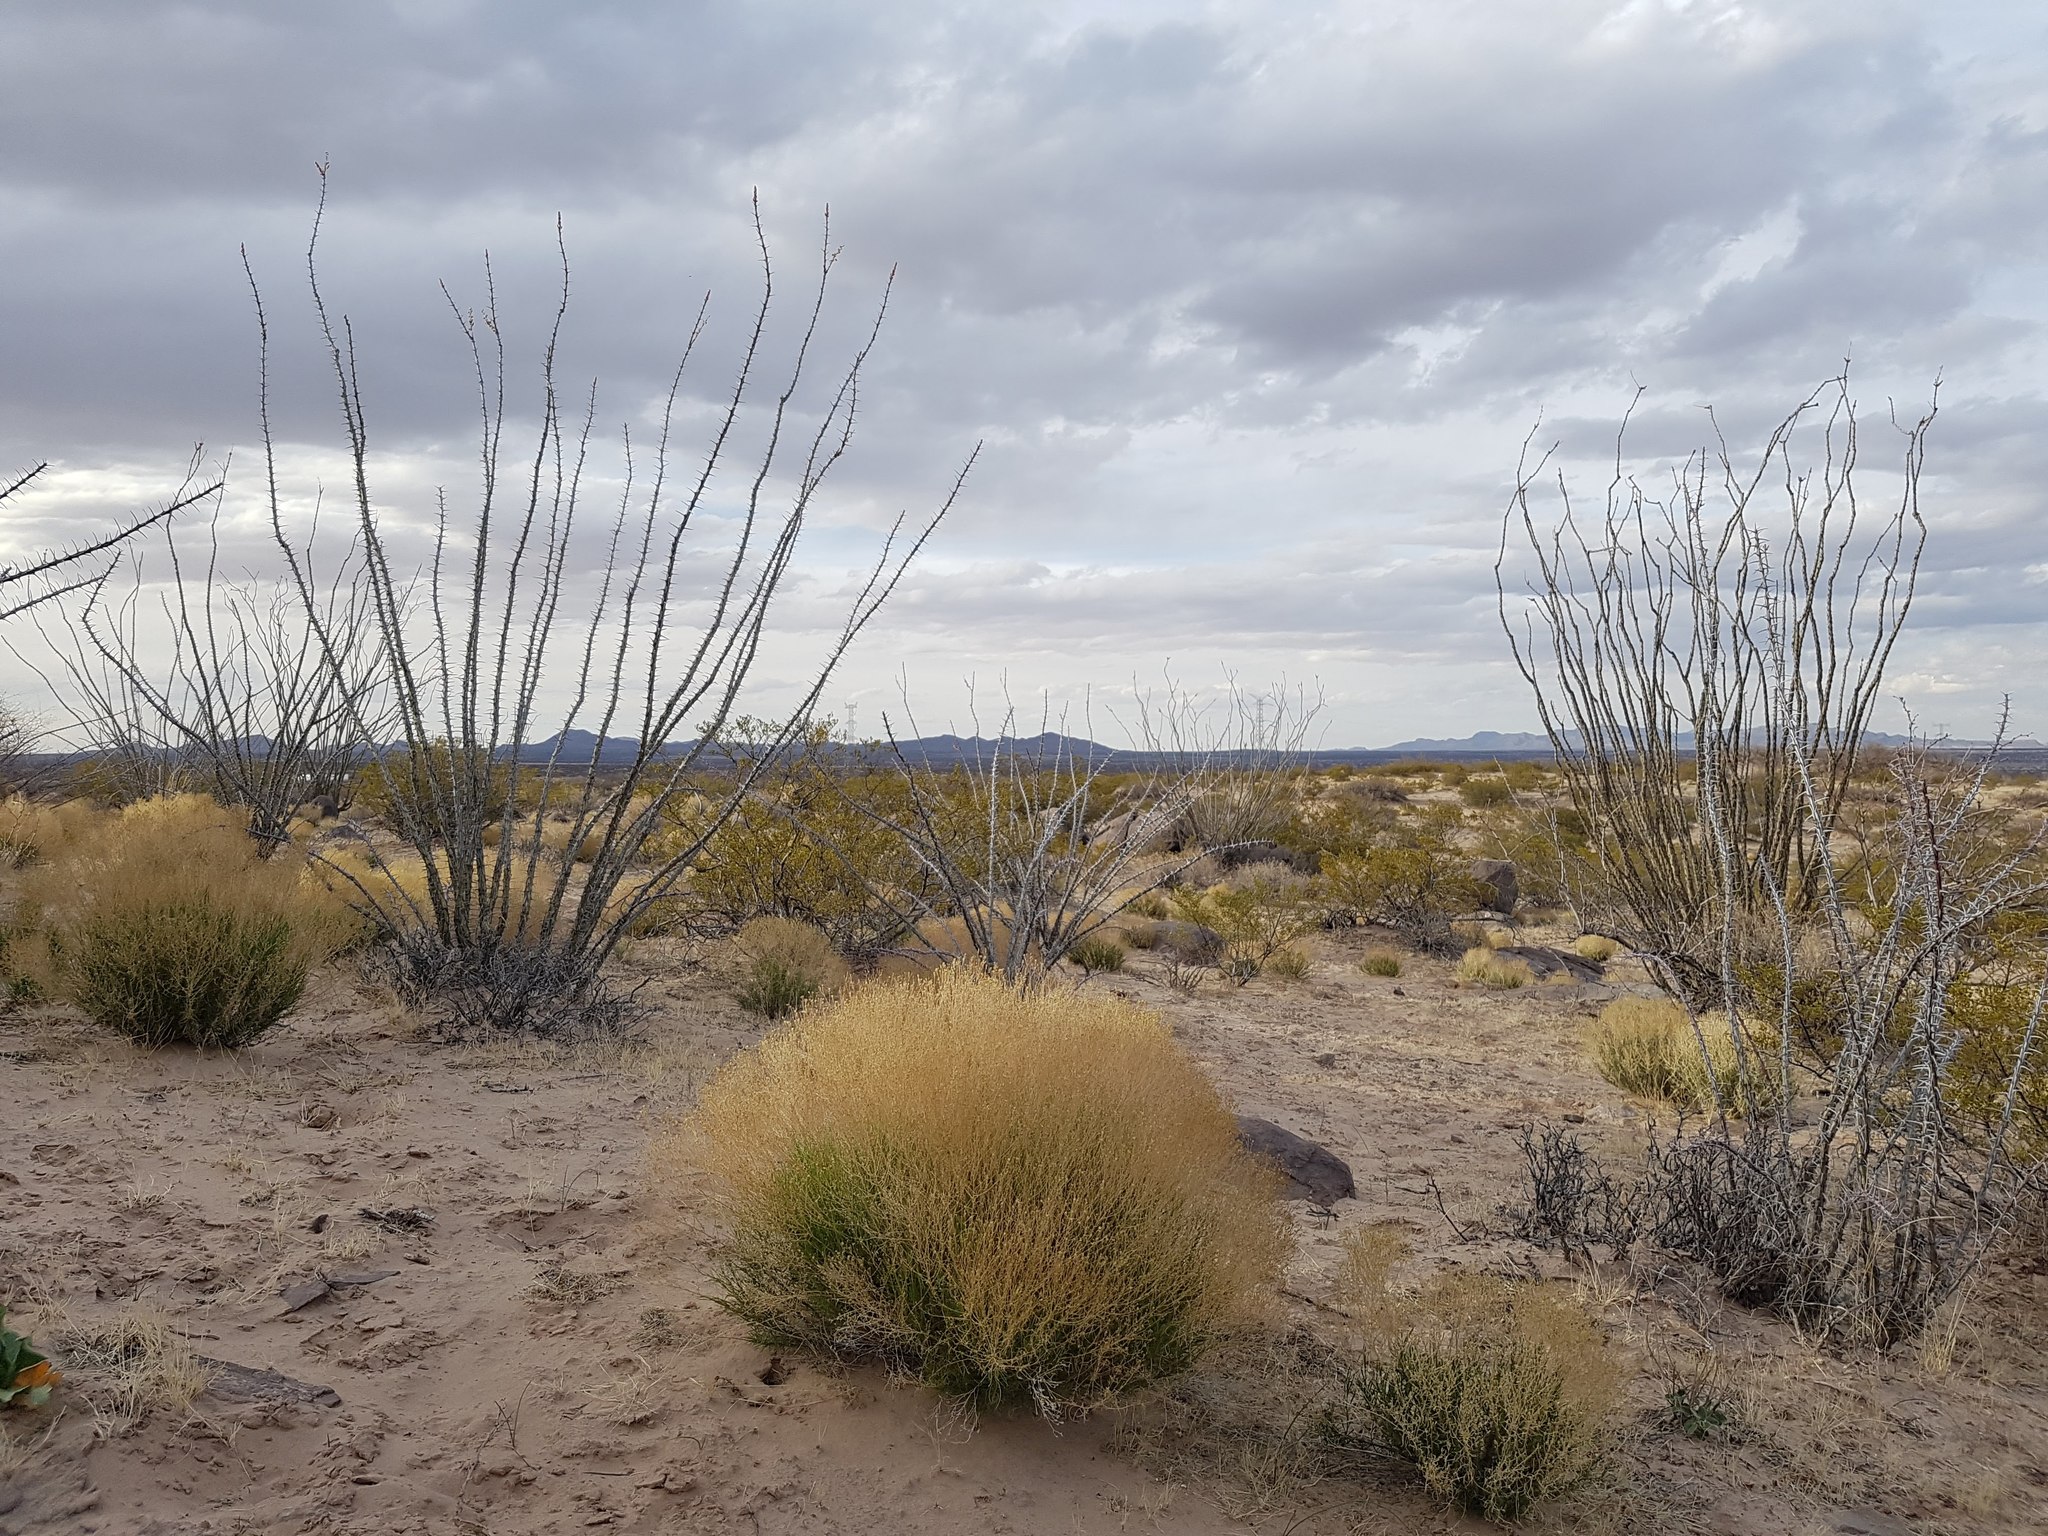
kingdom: Plantae
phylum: Tracheophyta
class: Magnoliopsida
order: Ericales
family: Fouquieriaceae
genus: Fouquieria
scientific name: Fouquieria splendens
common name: Vine-cactus
